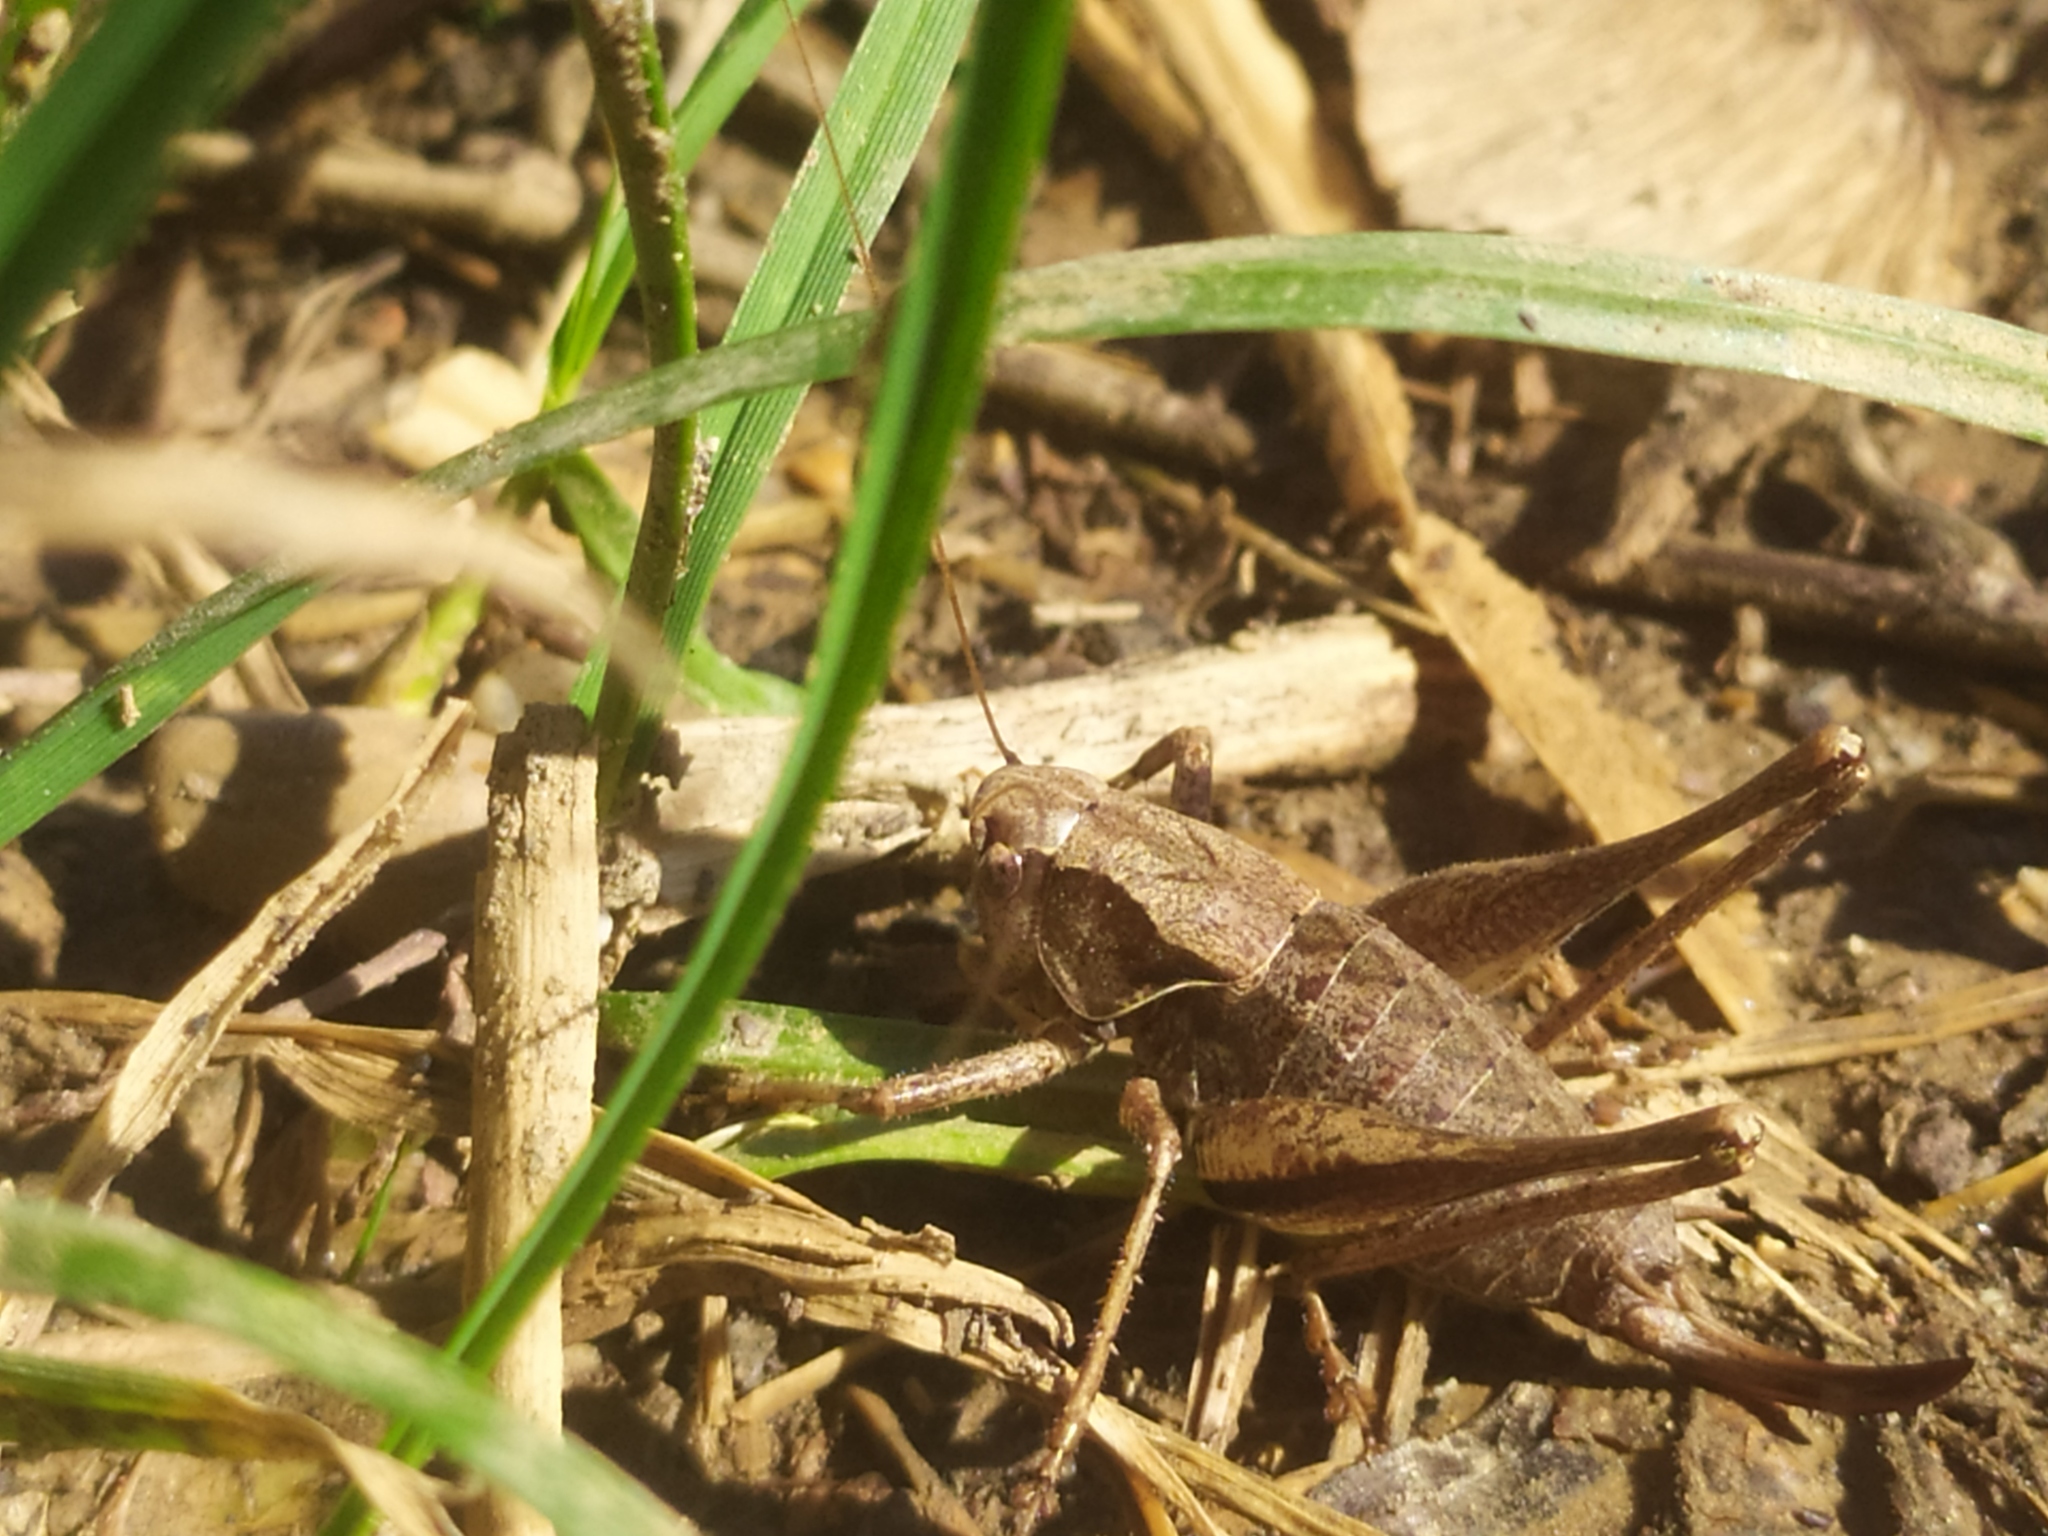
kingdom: Animalia
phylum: Arthropoda
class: Insecta
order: Orthoptera
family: Tettigoniidae
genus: Pholidoptera
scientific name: Pholidoptera griseoaptera
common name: Dark bush-cricket
